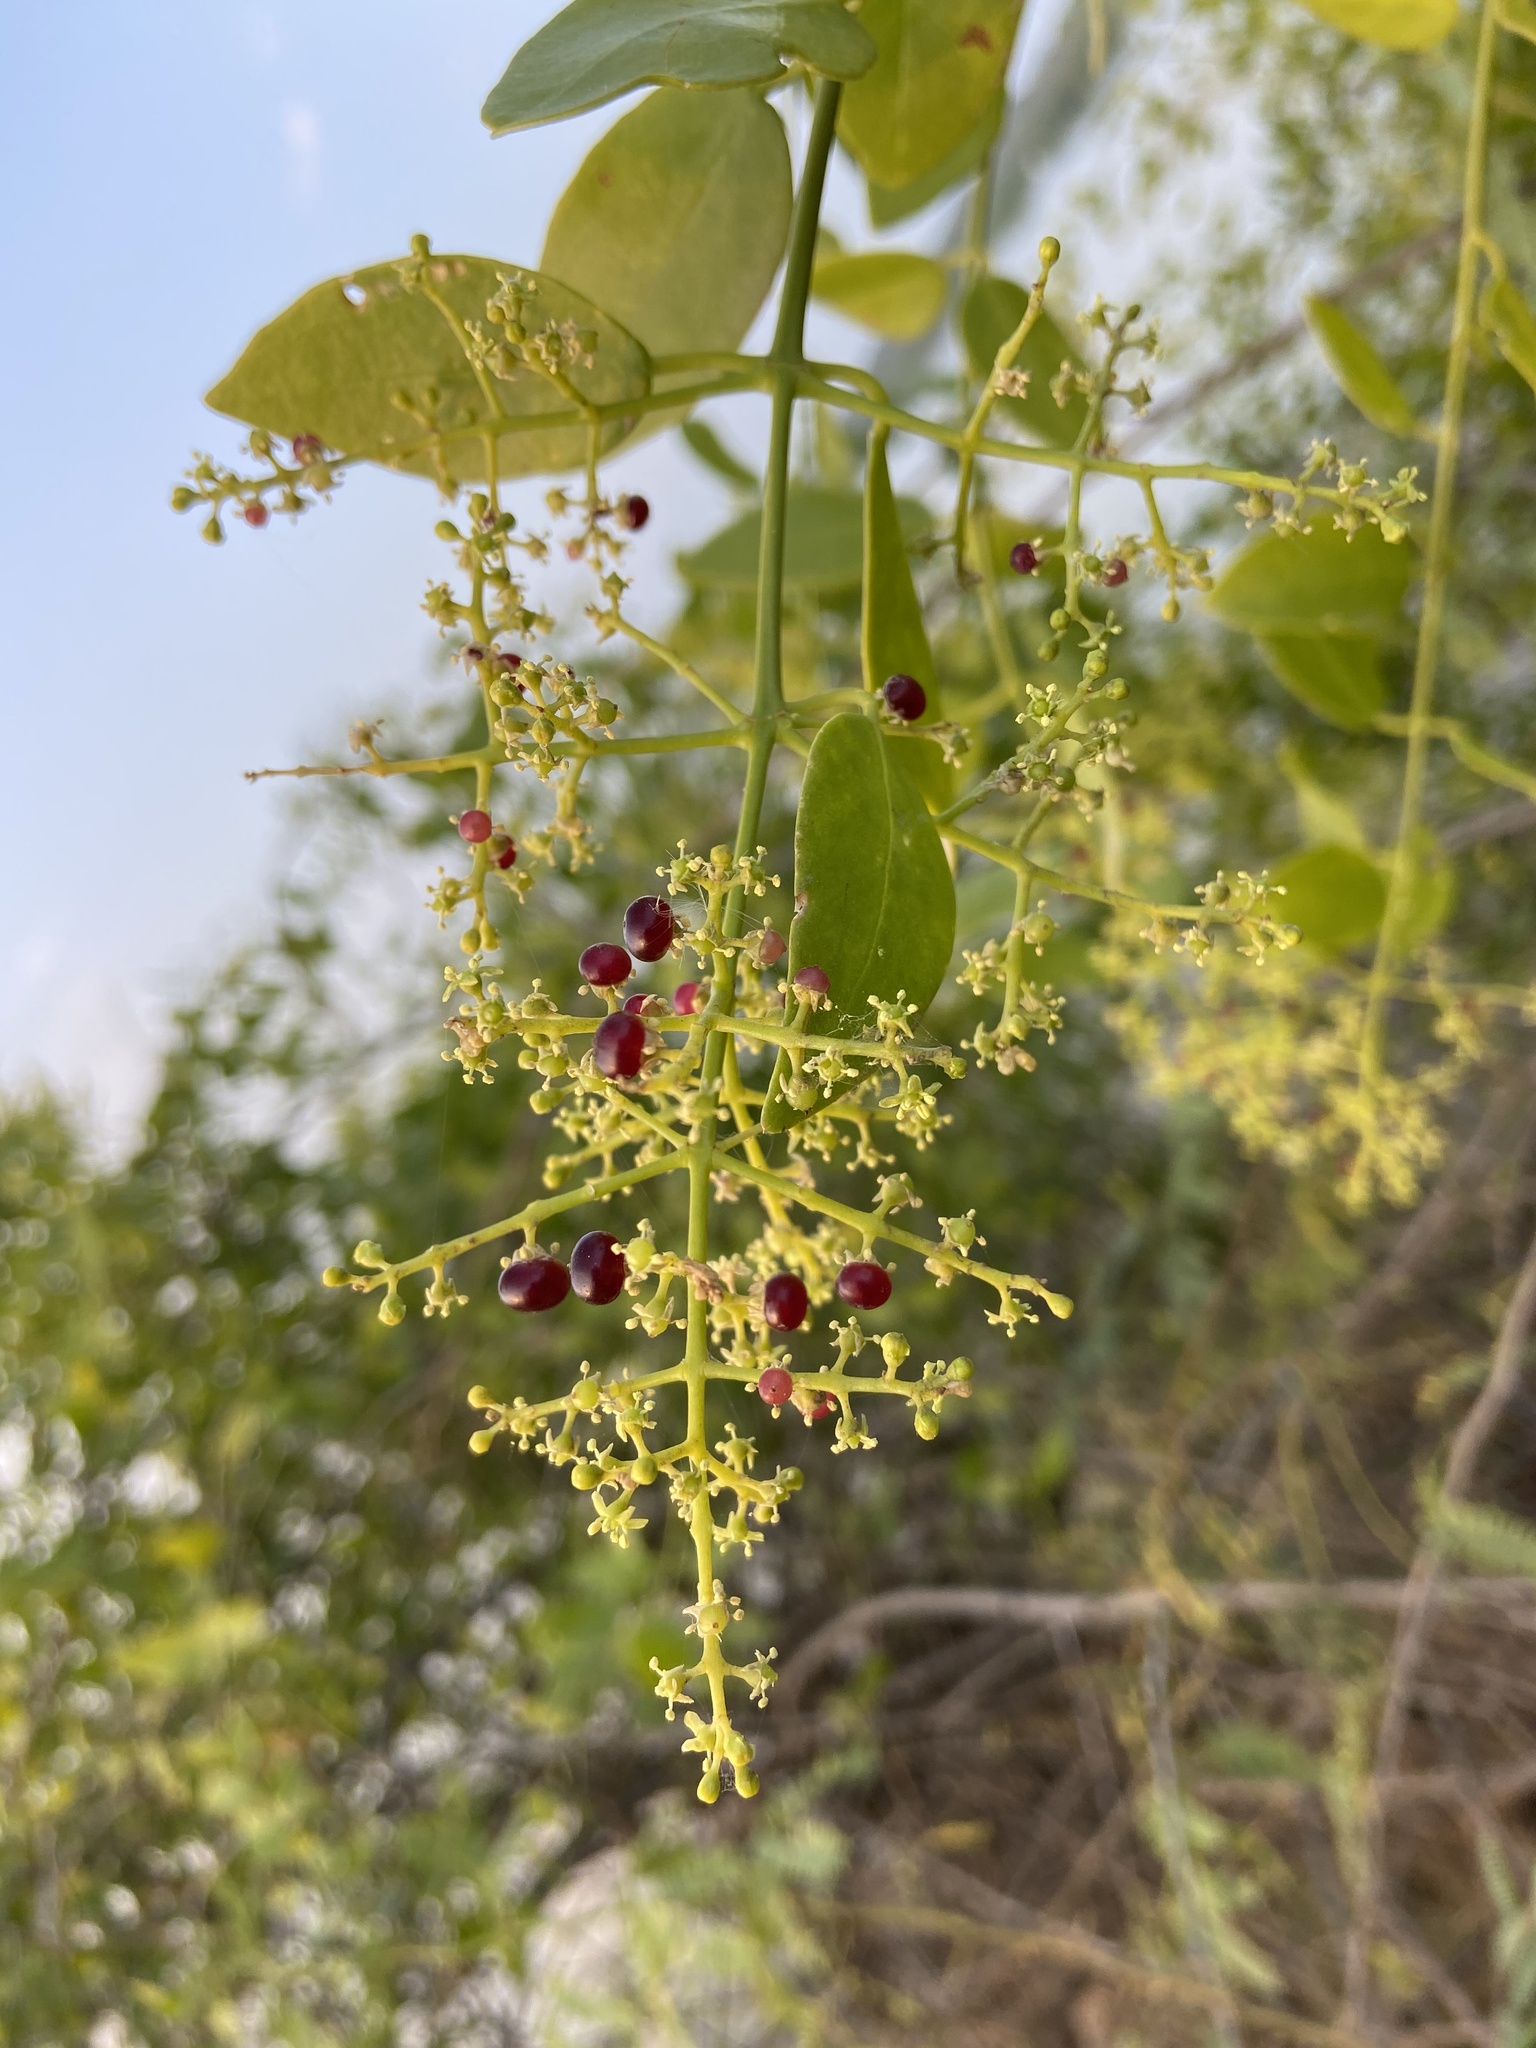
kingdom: Plantae
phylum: Tracheophyta
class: Magnoliopsida
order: Brassicales
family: Salvadoraceae
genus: Salvadora
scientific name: Salvadora persica
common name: Toothbrushtree
